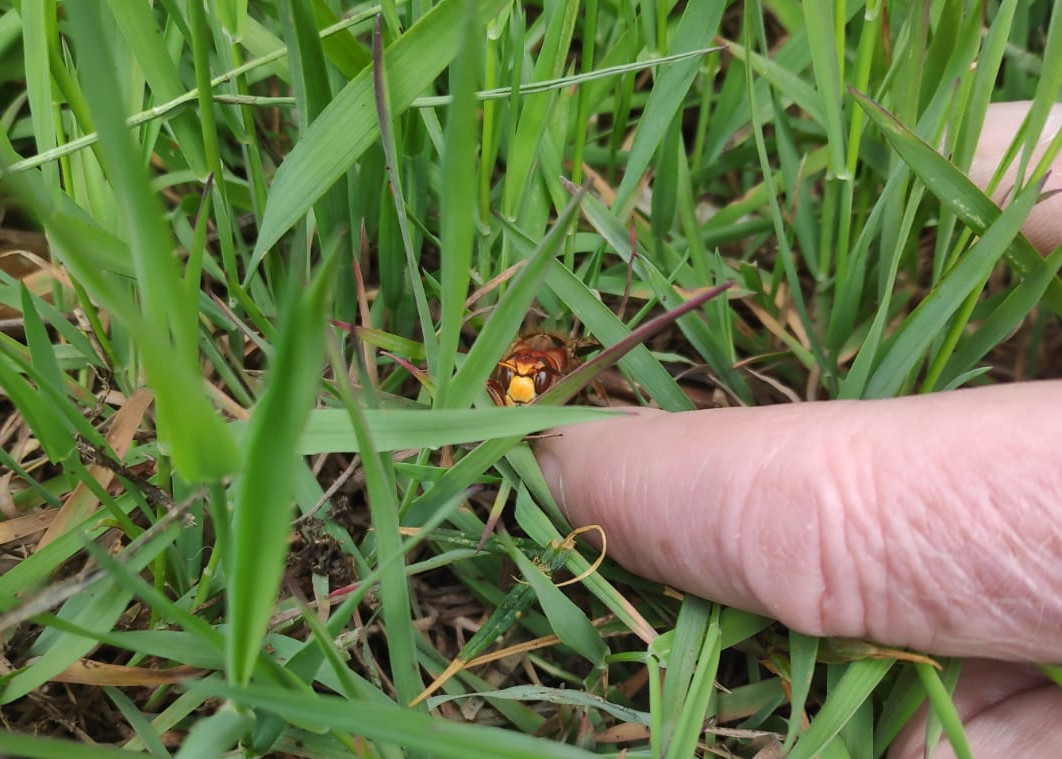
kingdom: Animalia
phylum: Arthropoda
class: Insecta
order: Hymenoptera
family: Vespidae
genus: Vespa
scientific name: Vespa crabro
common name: Hornet
